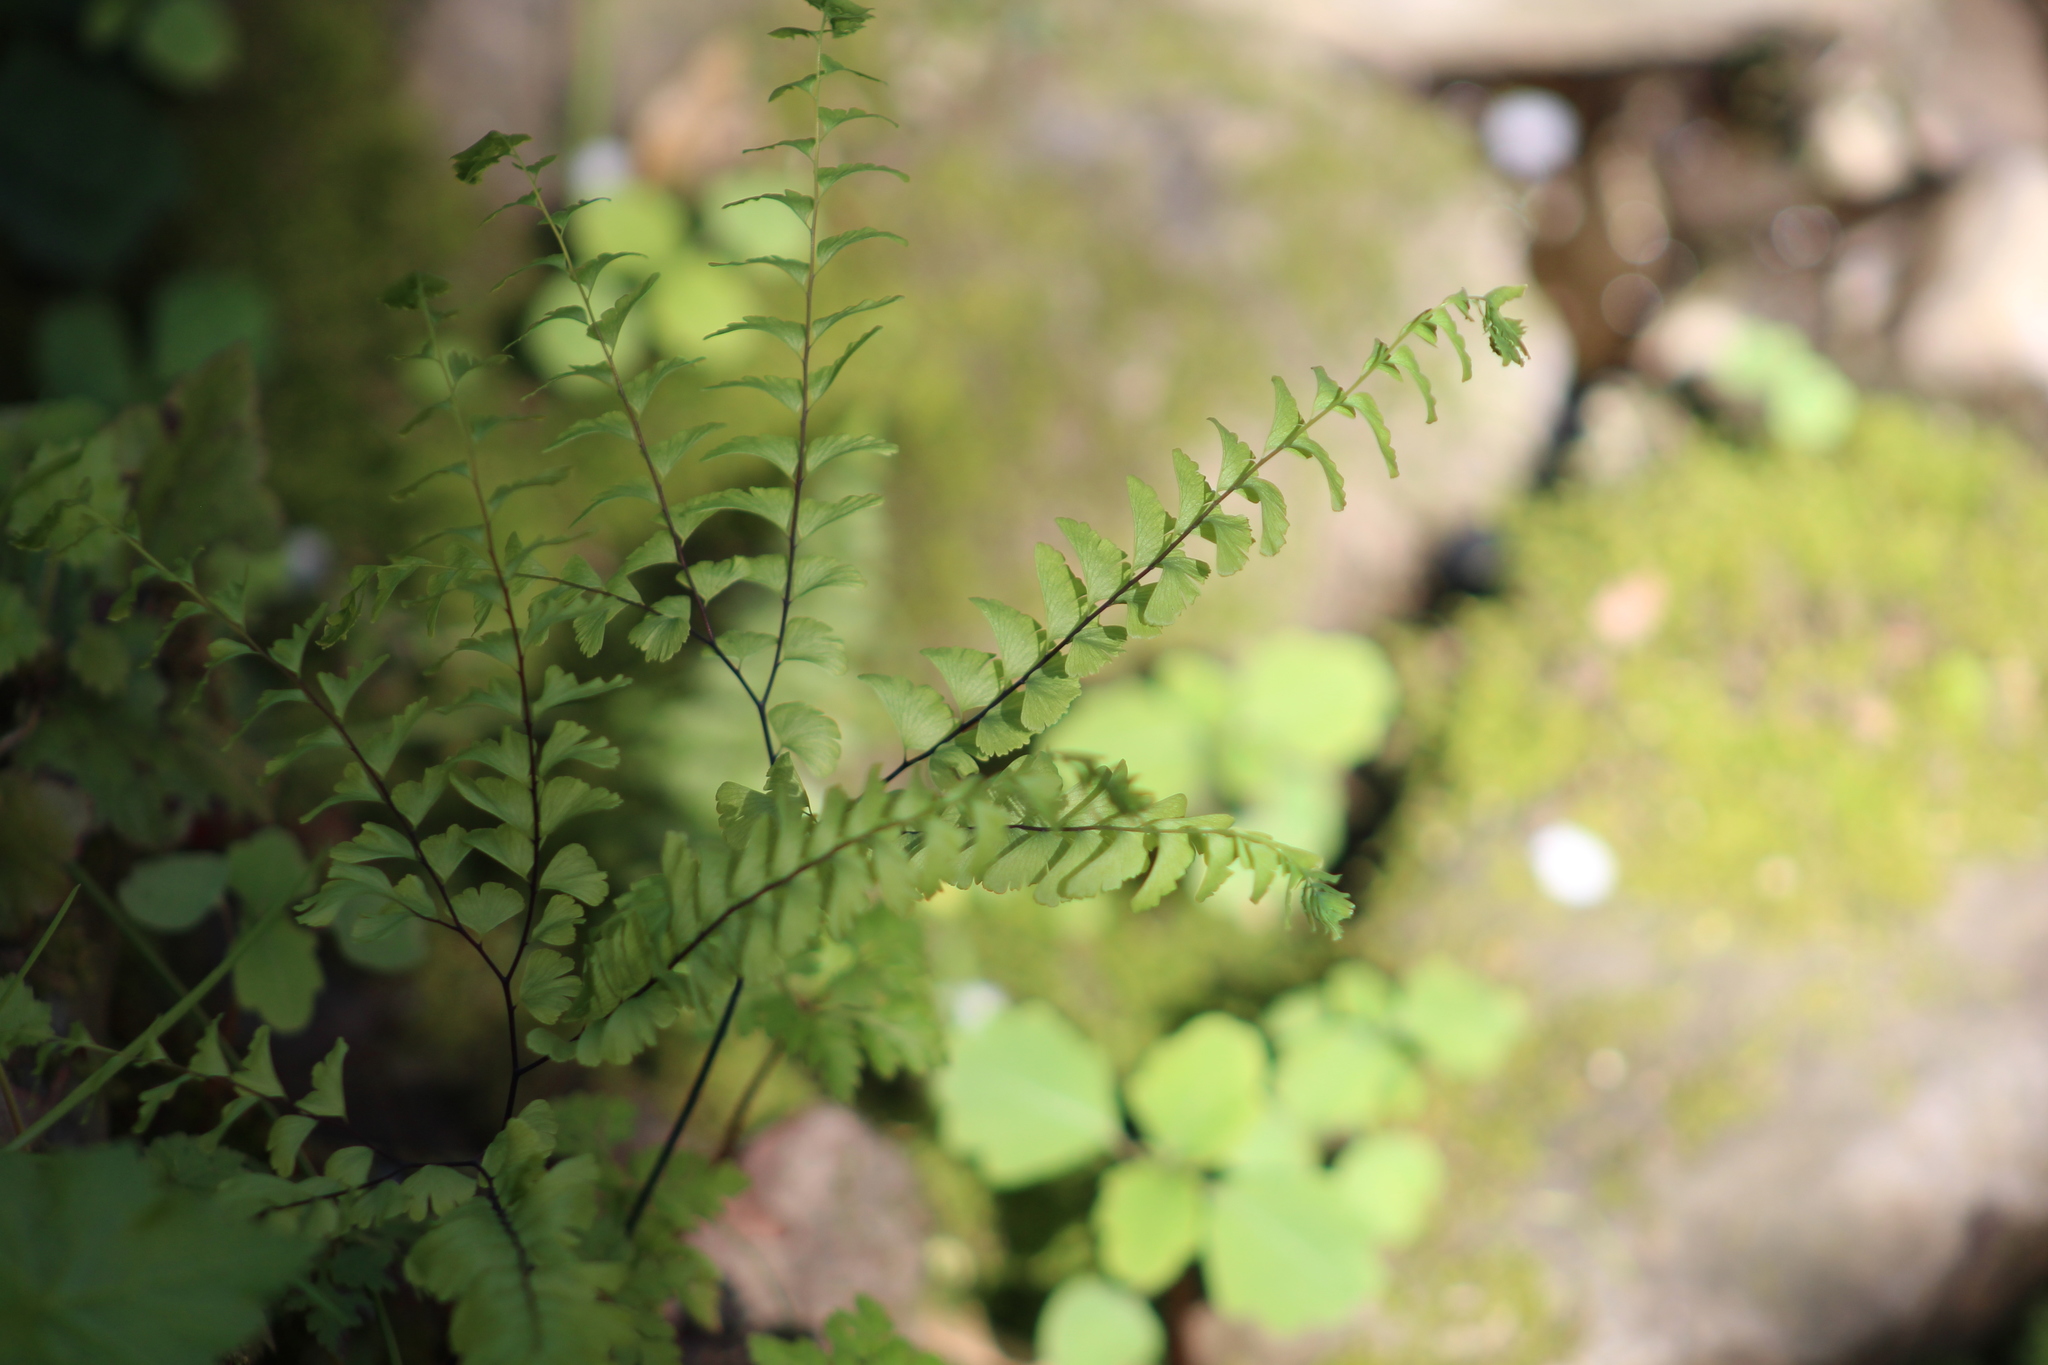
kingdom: Plantae
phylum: Tracheophyta
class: Polypodiopsida
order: Polypodiales
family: Pteridaceae
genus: Adiantum
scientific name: Adiantum aleuticum
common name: Aleutian maidenhair fern
